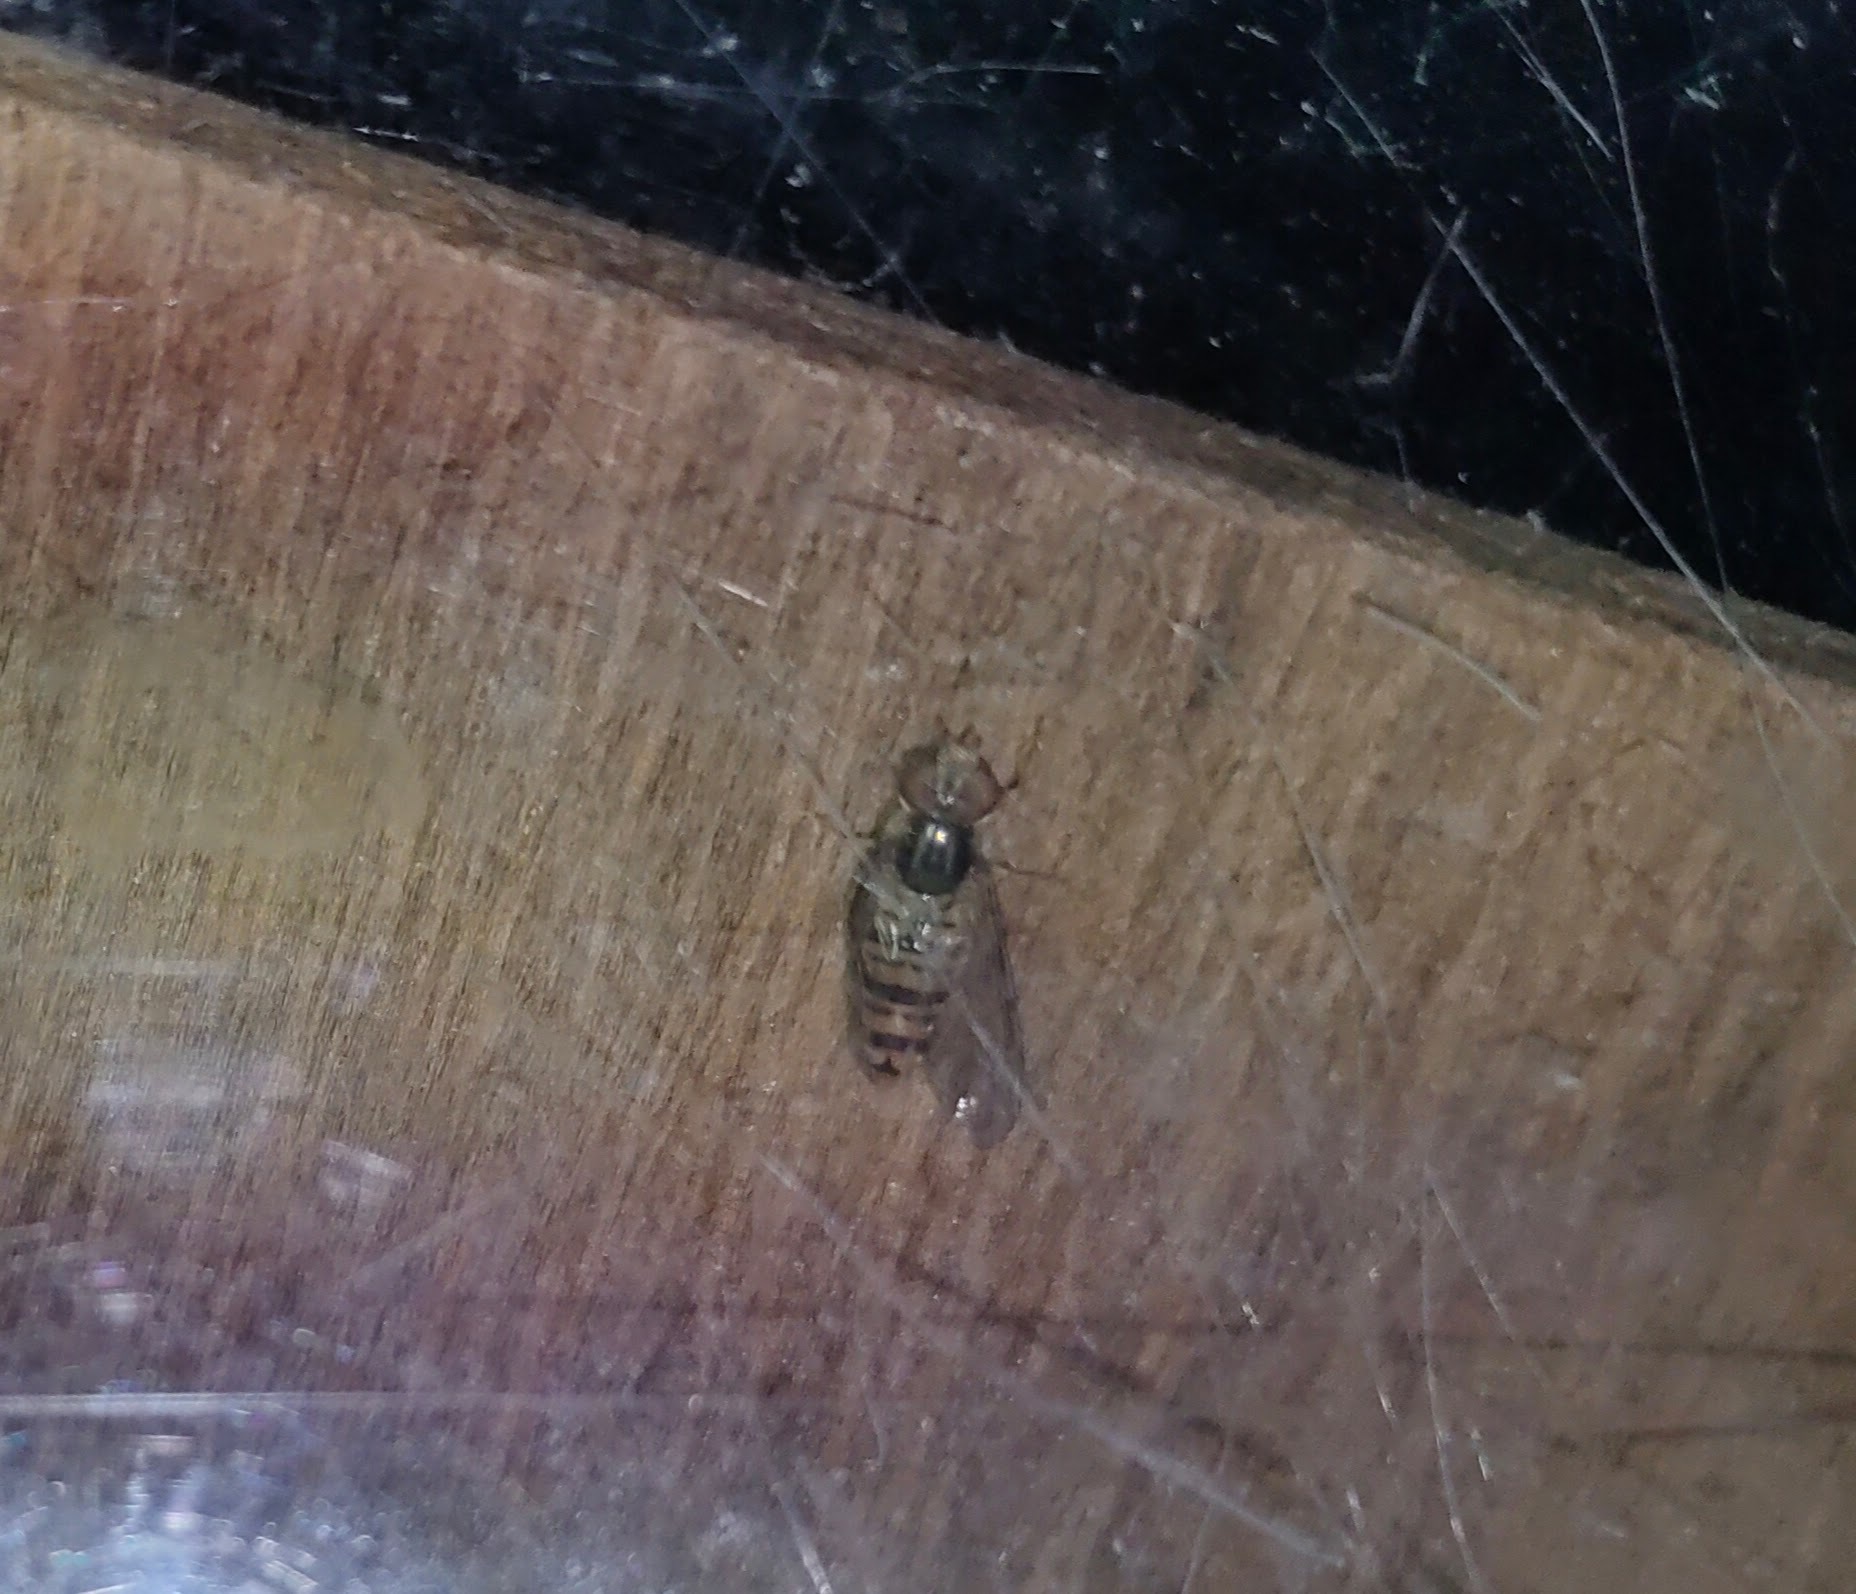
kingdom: Animalia
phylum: Arthropoda
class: Insecta
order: Diptera
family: Syrphidae
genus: Episyrphus
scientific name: Episyrphus balteatus
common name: Marmalade hoverfly
